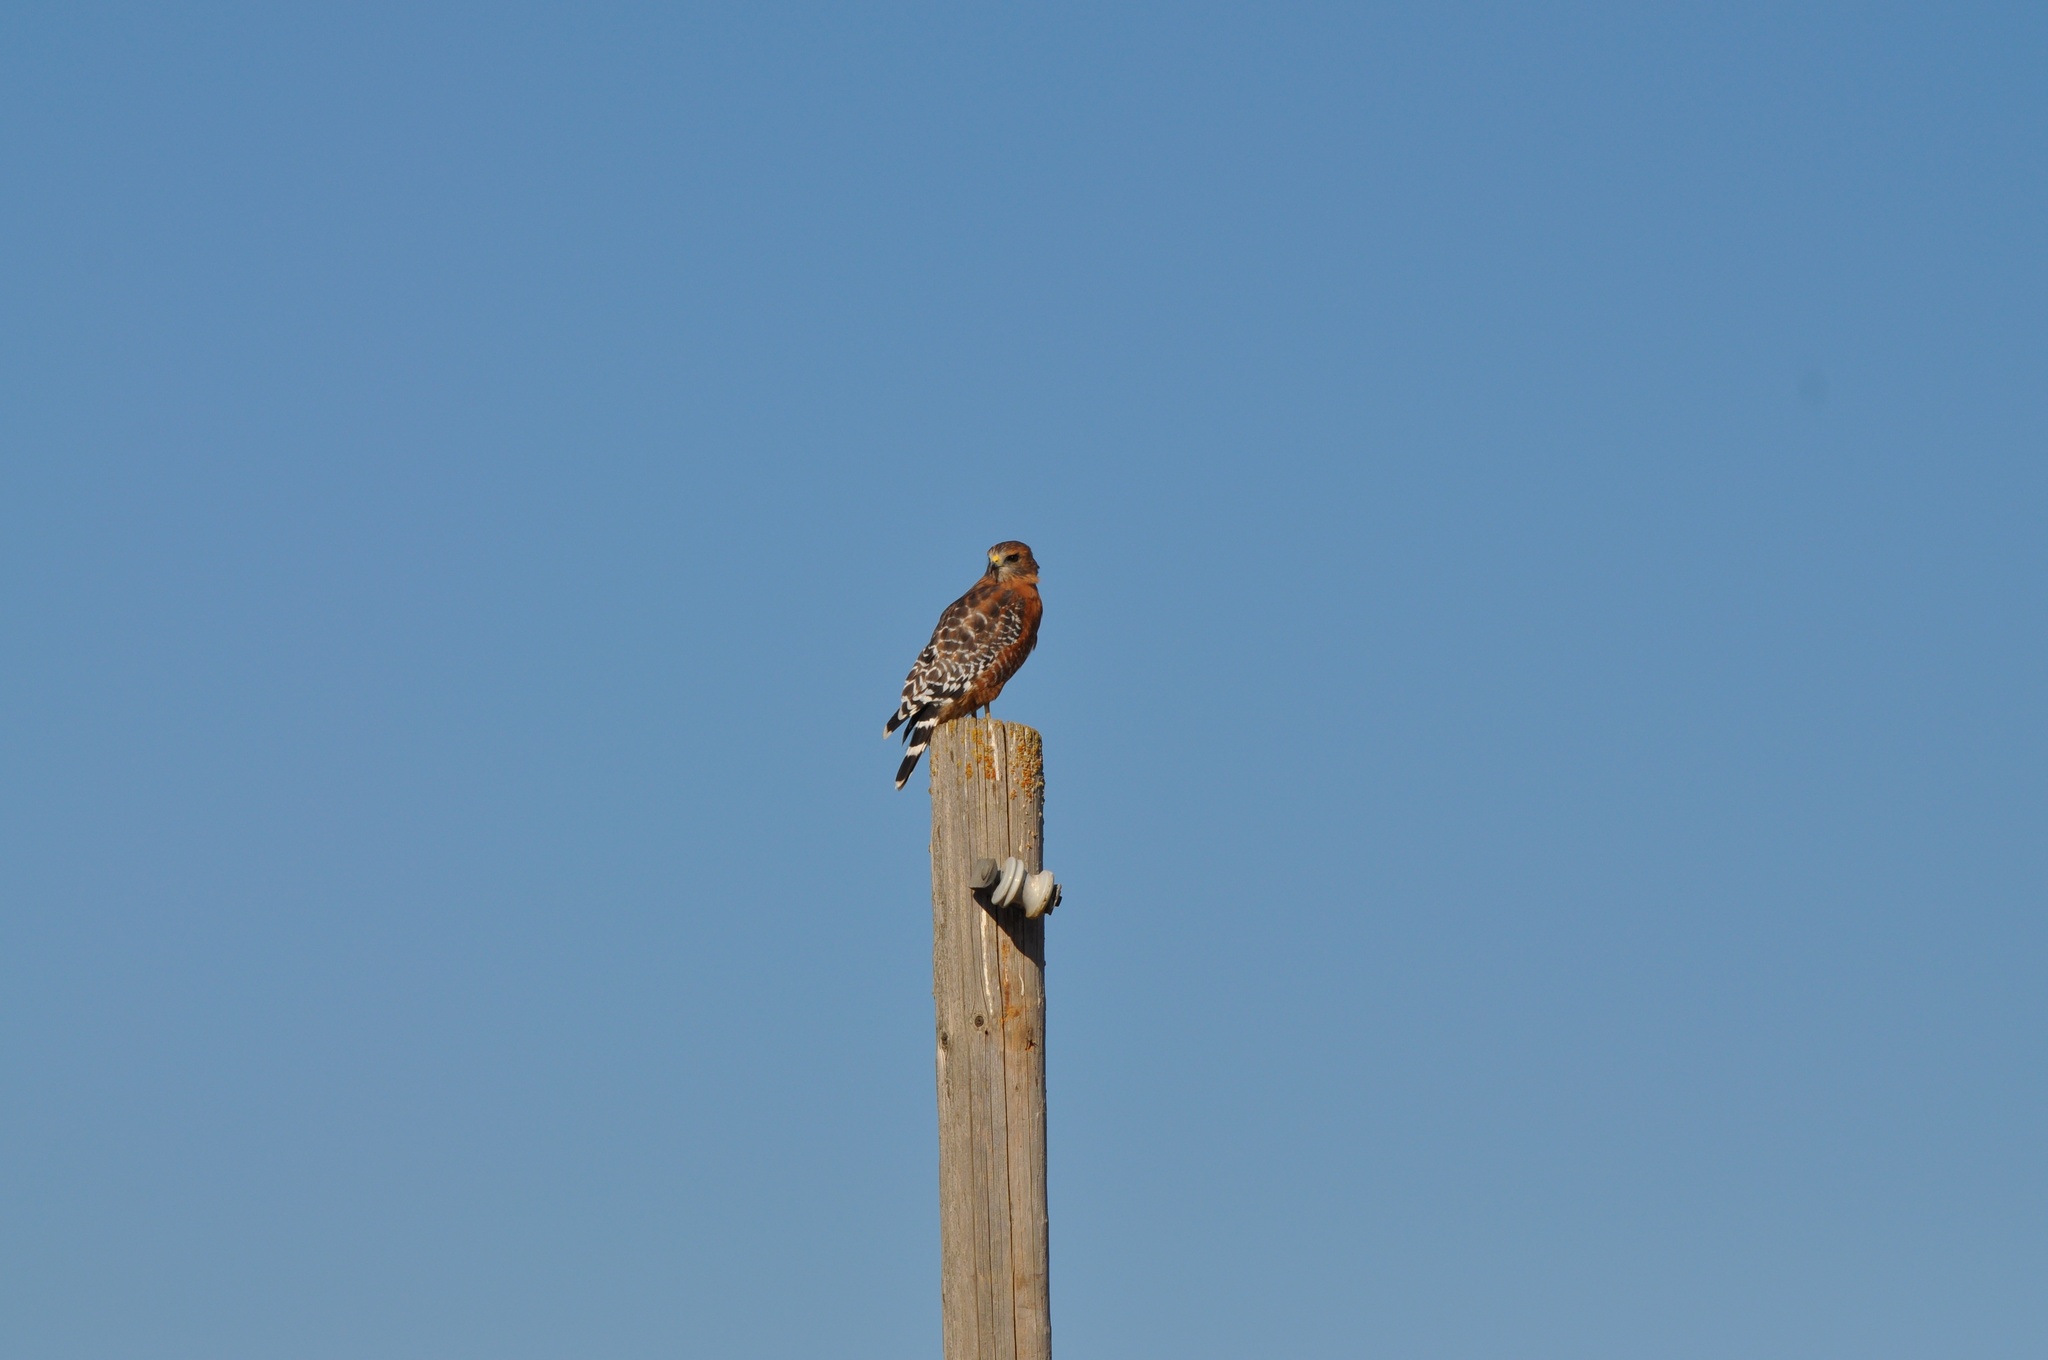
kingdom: Animalia
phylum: Chordata
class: Aves
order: Accipitriformes
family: Accipitridae
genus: Buteo
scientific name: Buteo lineatus
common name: Red-shouldered hawk
